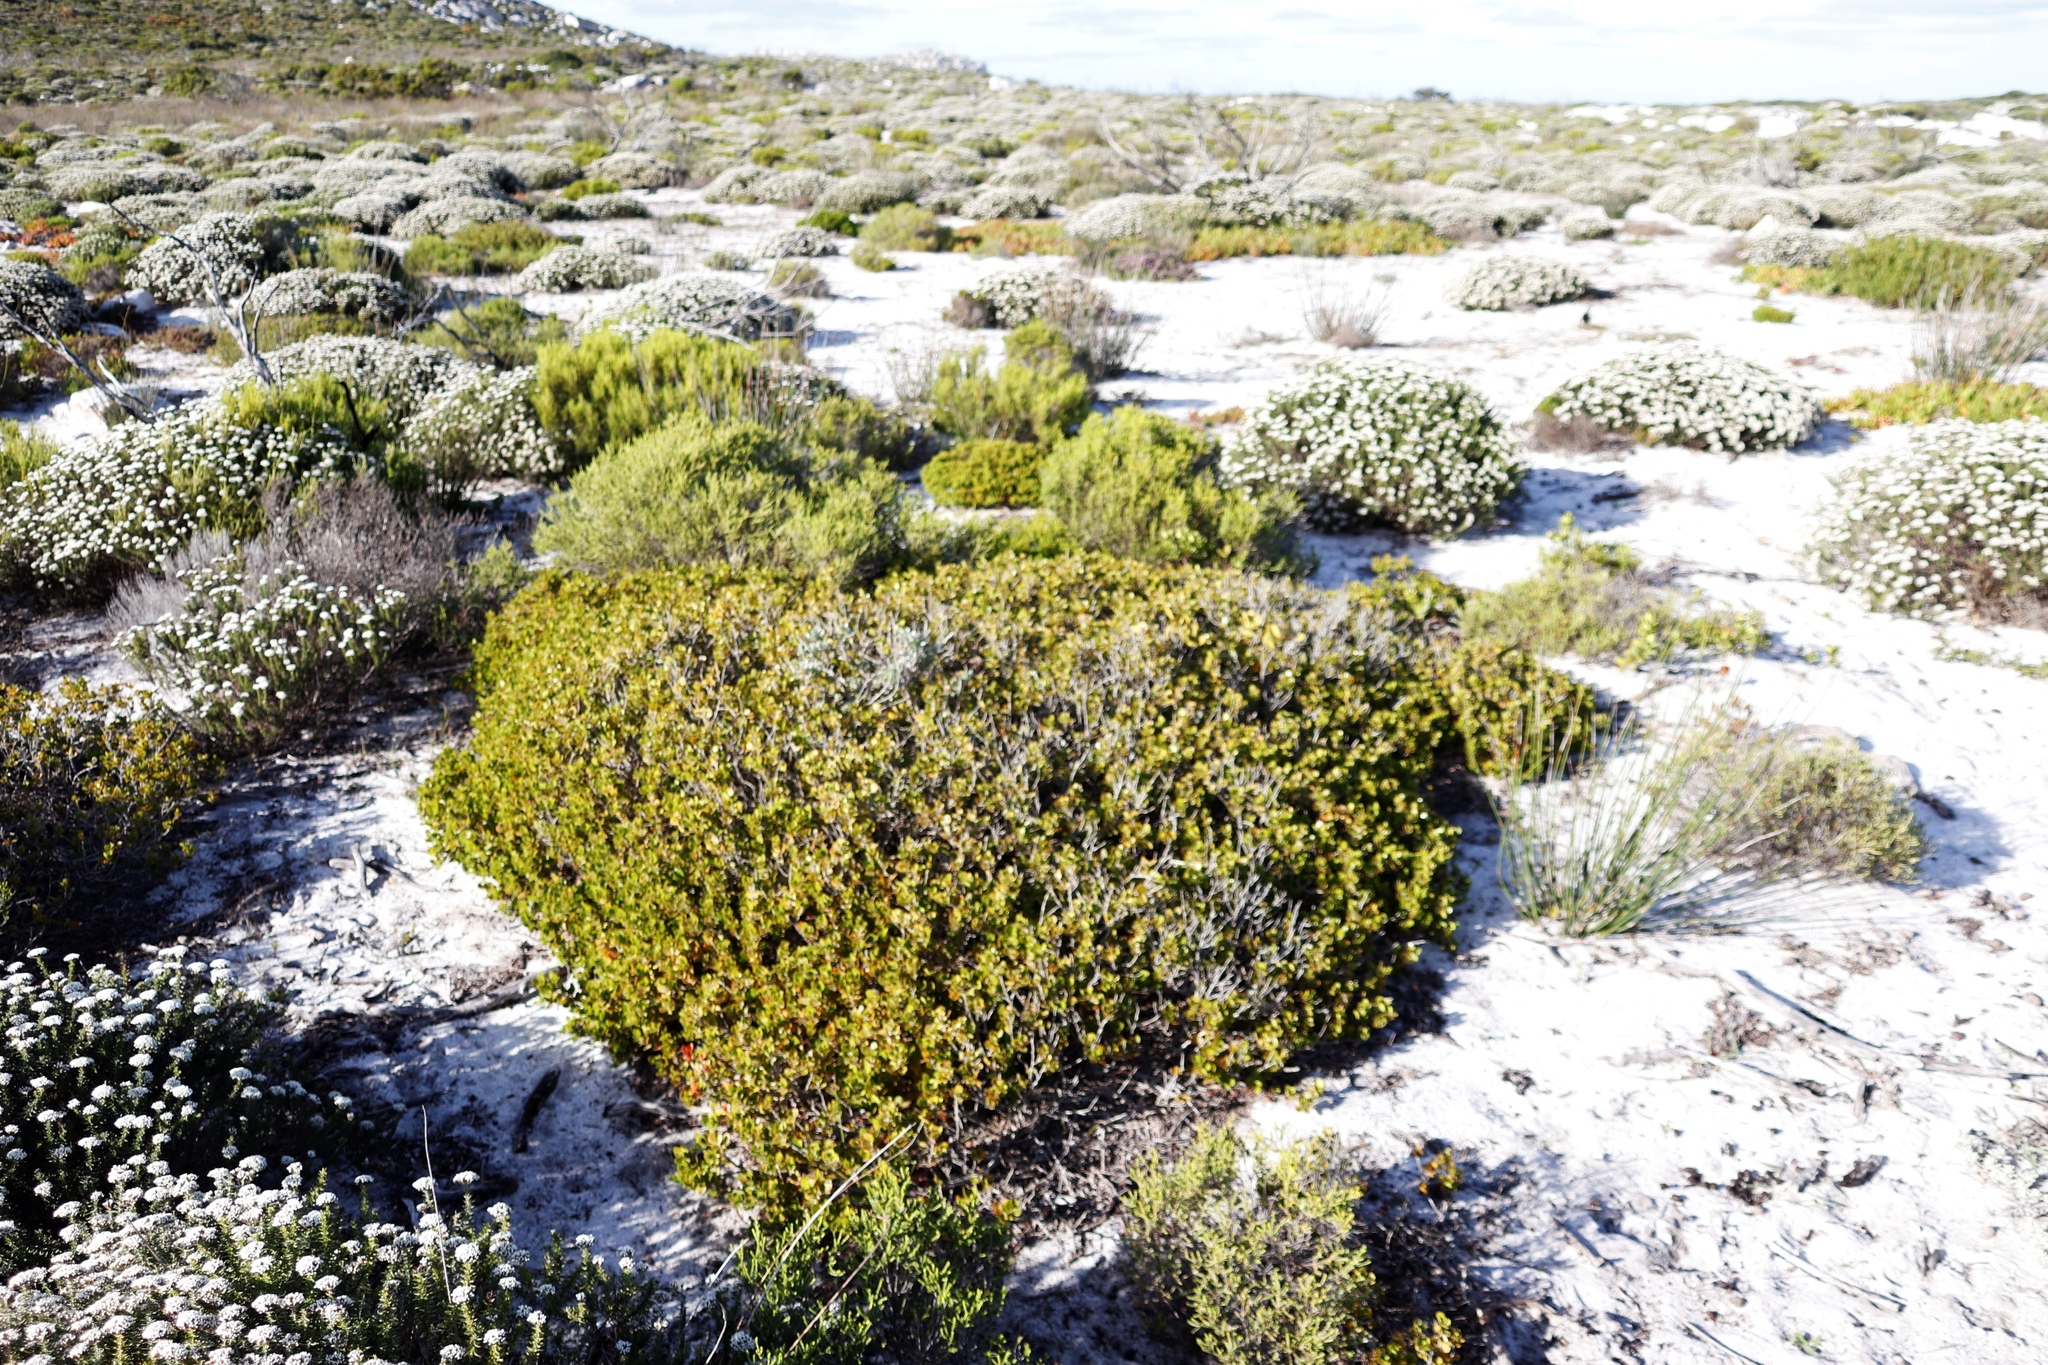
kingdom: Plantae
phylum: Tracheophyta
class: Magnoliopsida
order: Sapindales
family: Anacardiaceae
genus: Searsia
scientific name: Searsia glauca
